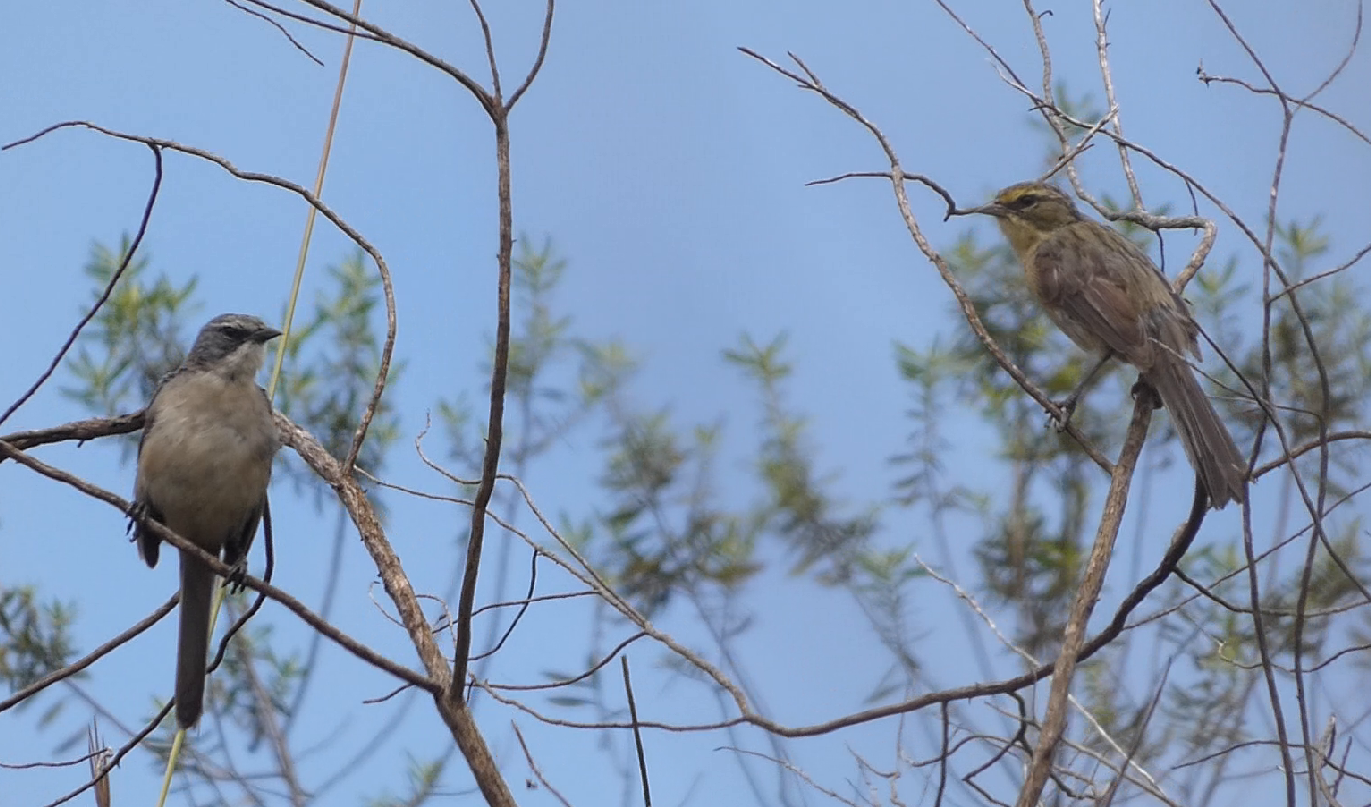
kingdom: Animalia
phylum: Chordata
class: Aves
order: Passeriformes
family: Thraupidae
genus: Donacospiza
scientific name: Donacospiza albifrons
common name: Long-tailed reed finch
